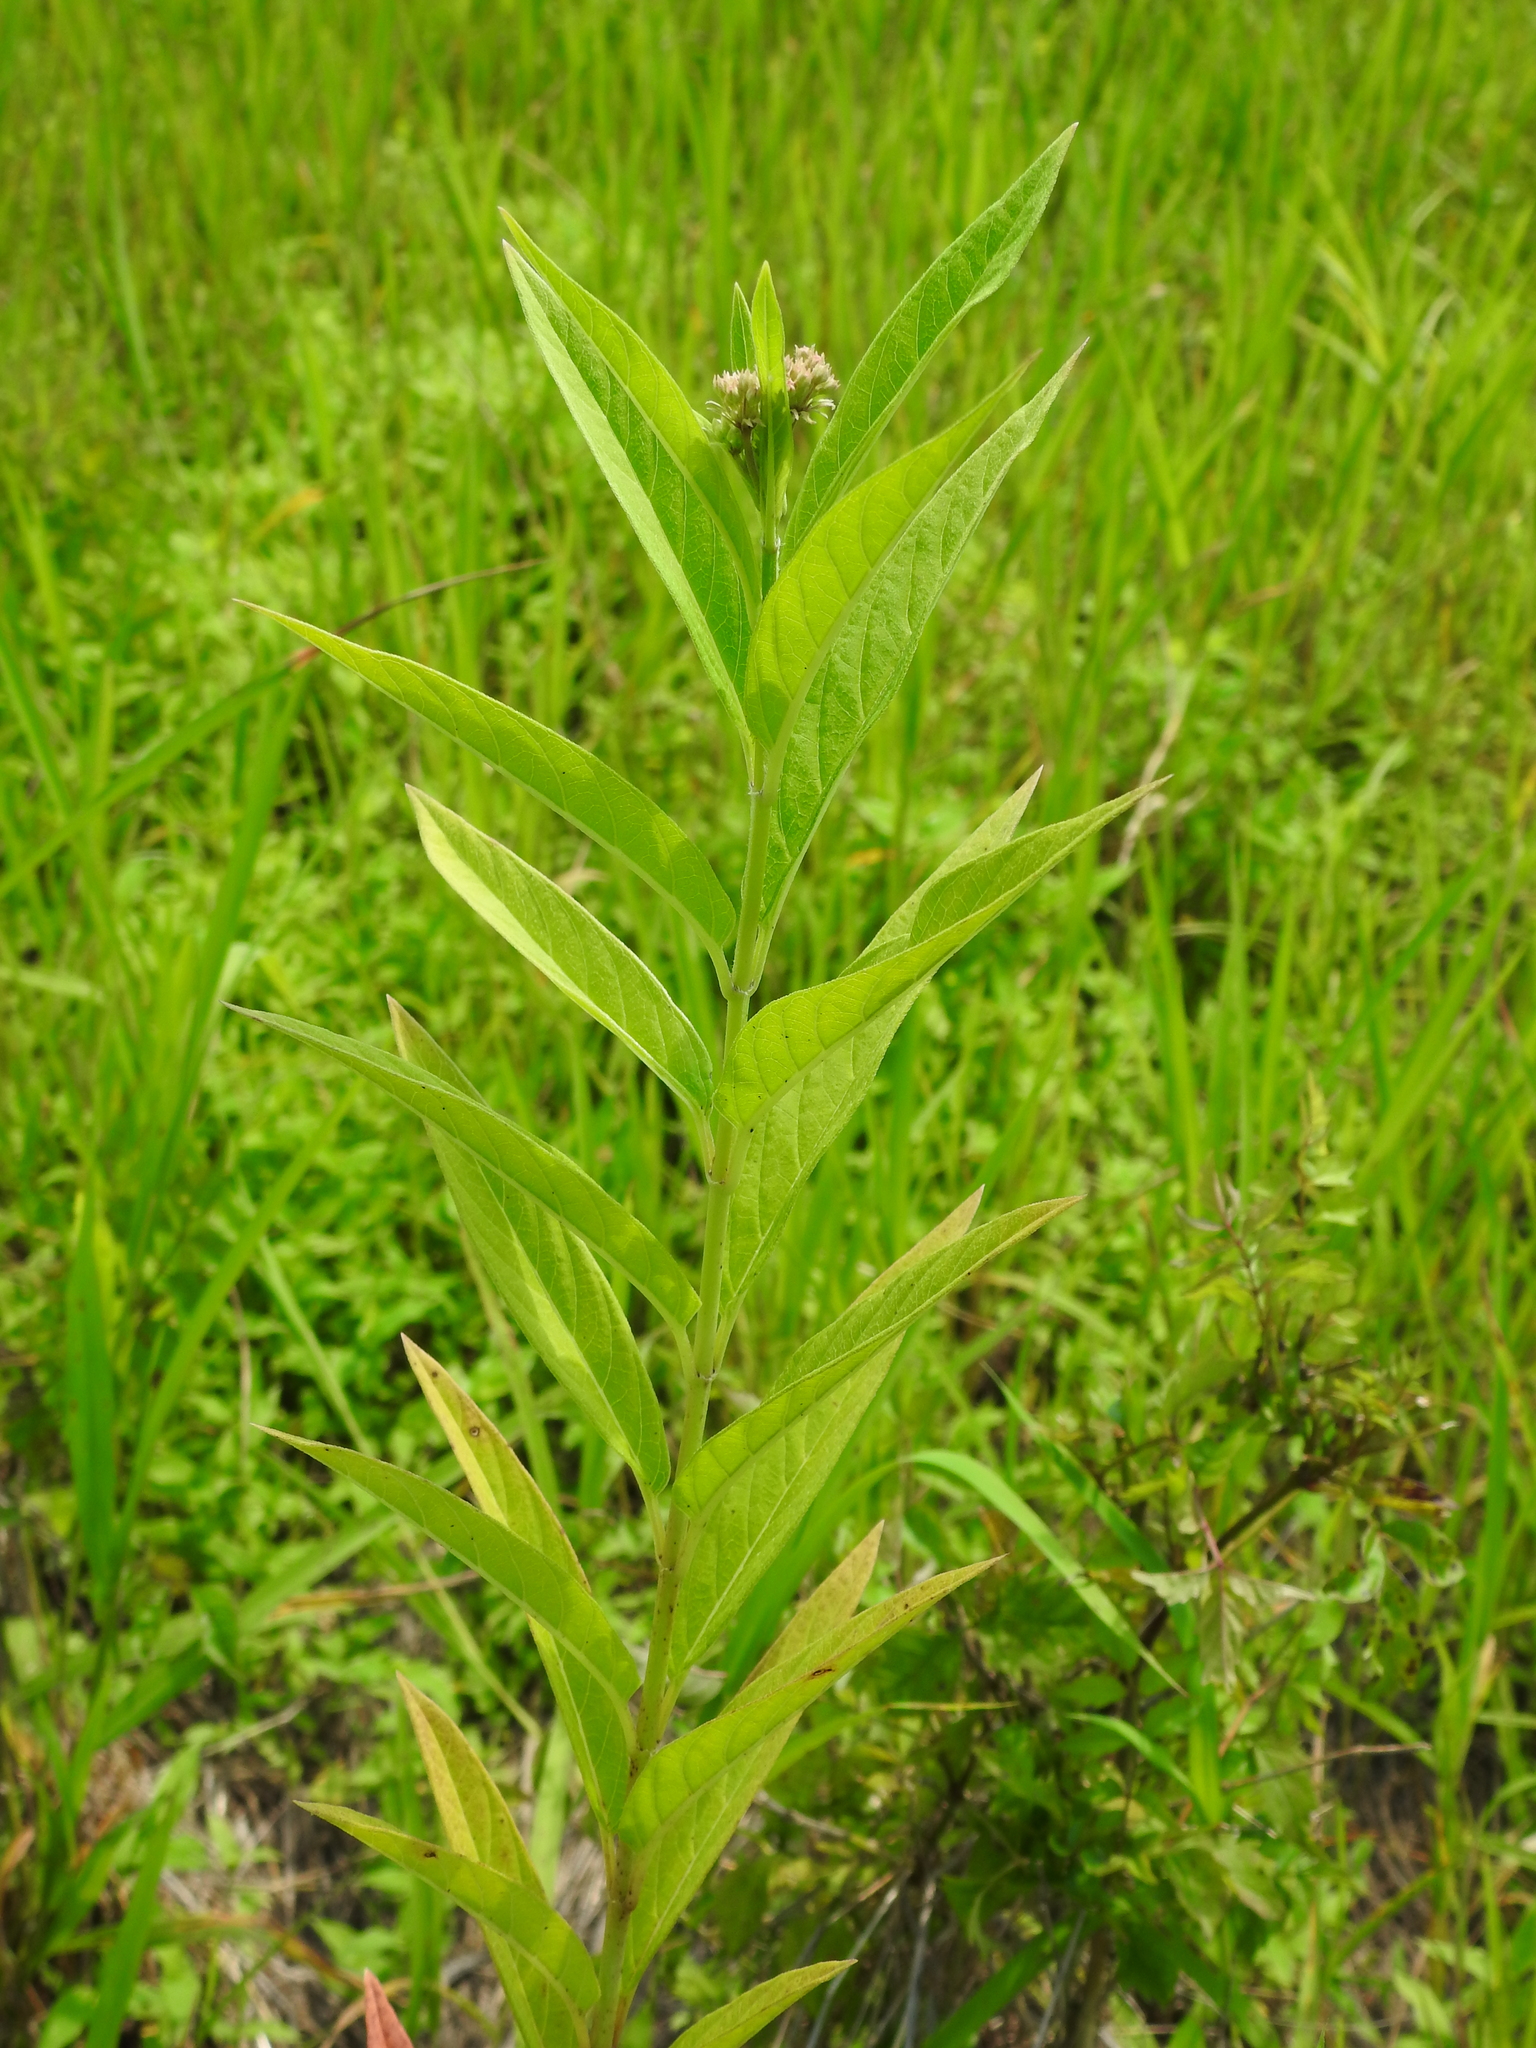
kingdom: Plantae
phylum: Tracheophyta
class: Magnoliopsida
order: Gentianales
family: Apocynaceae
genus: Asclepias
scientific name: Asclepias incarnata
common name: Swamp milkweed
